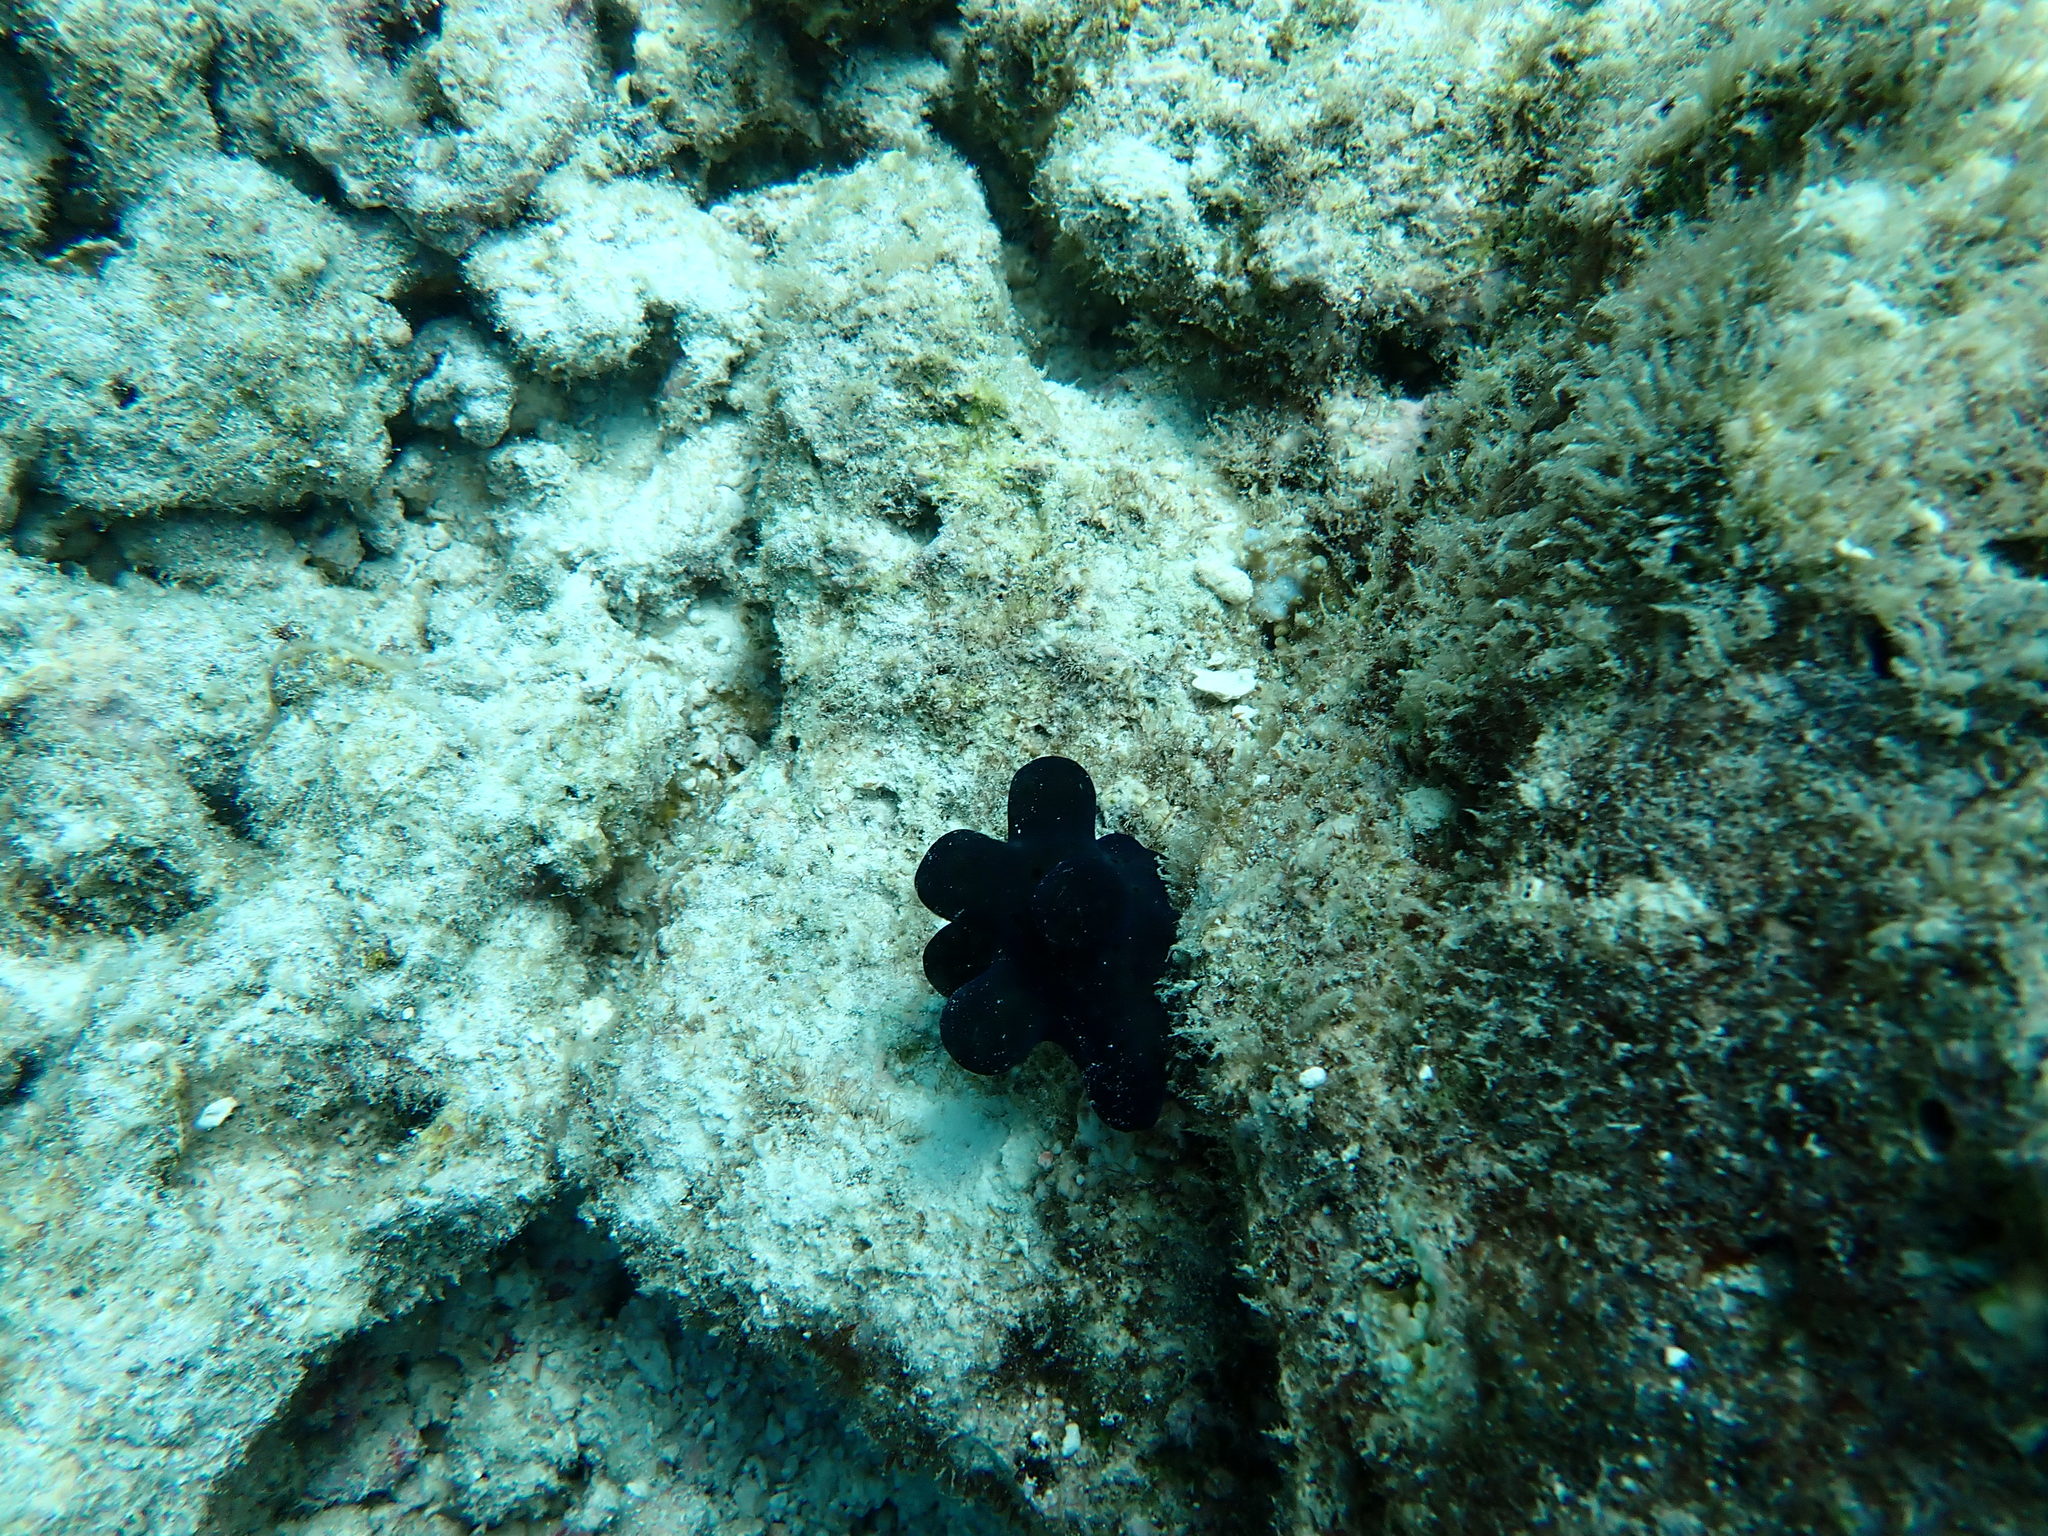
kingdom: Animalia
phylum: Mollusca
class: Gastropoda
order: Littorinimorpha
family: Velutinidae
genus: Coriocella
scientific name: Coriocella hibyae
